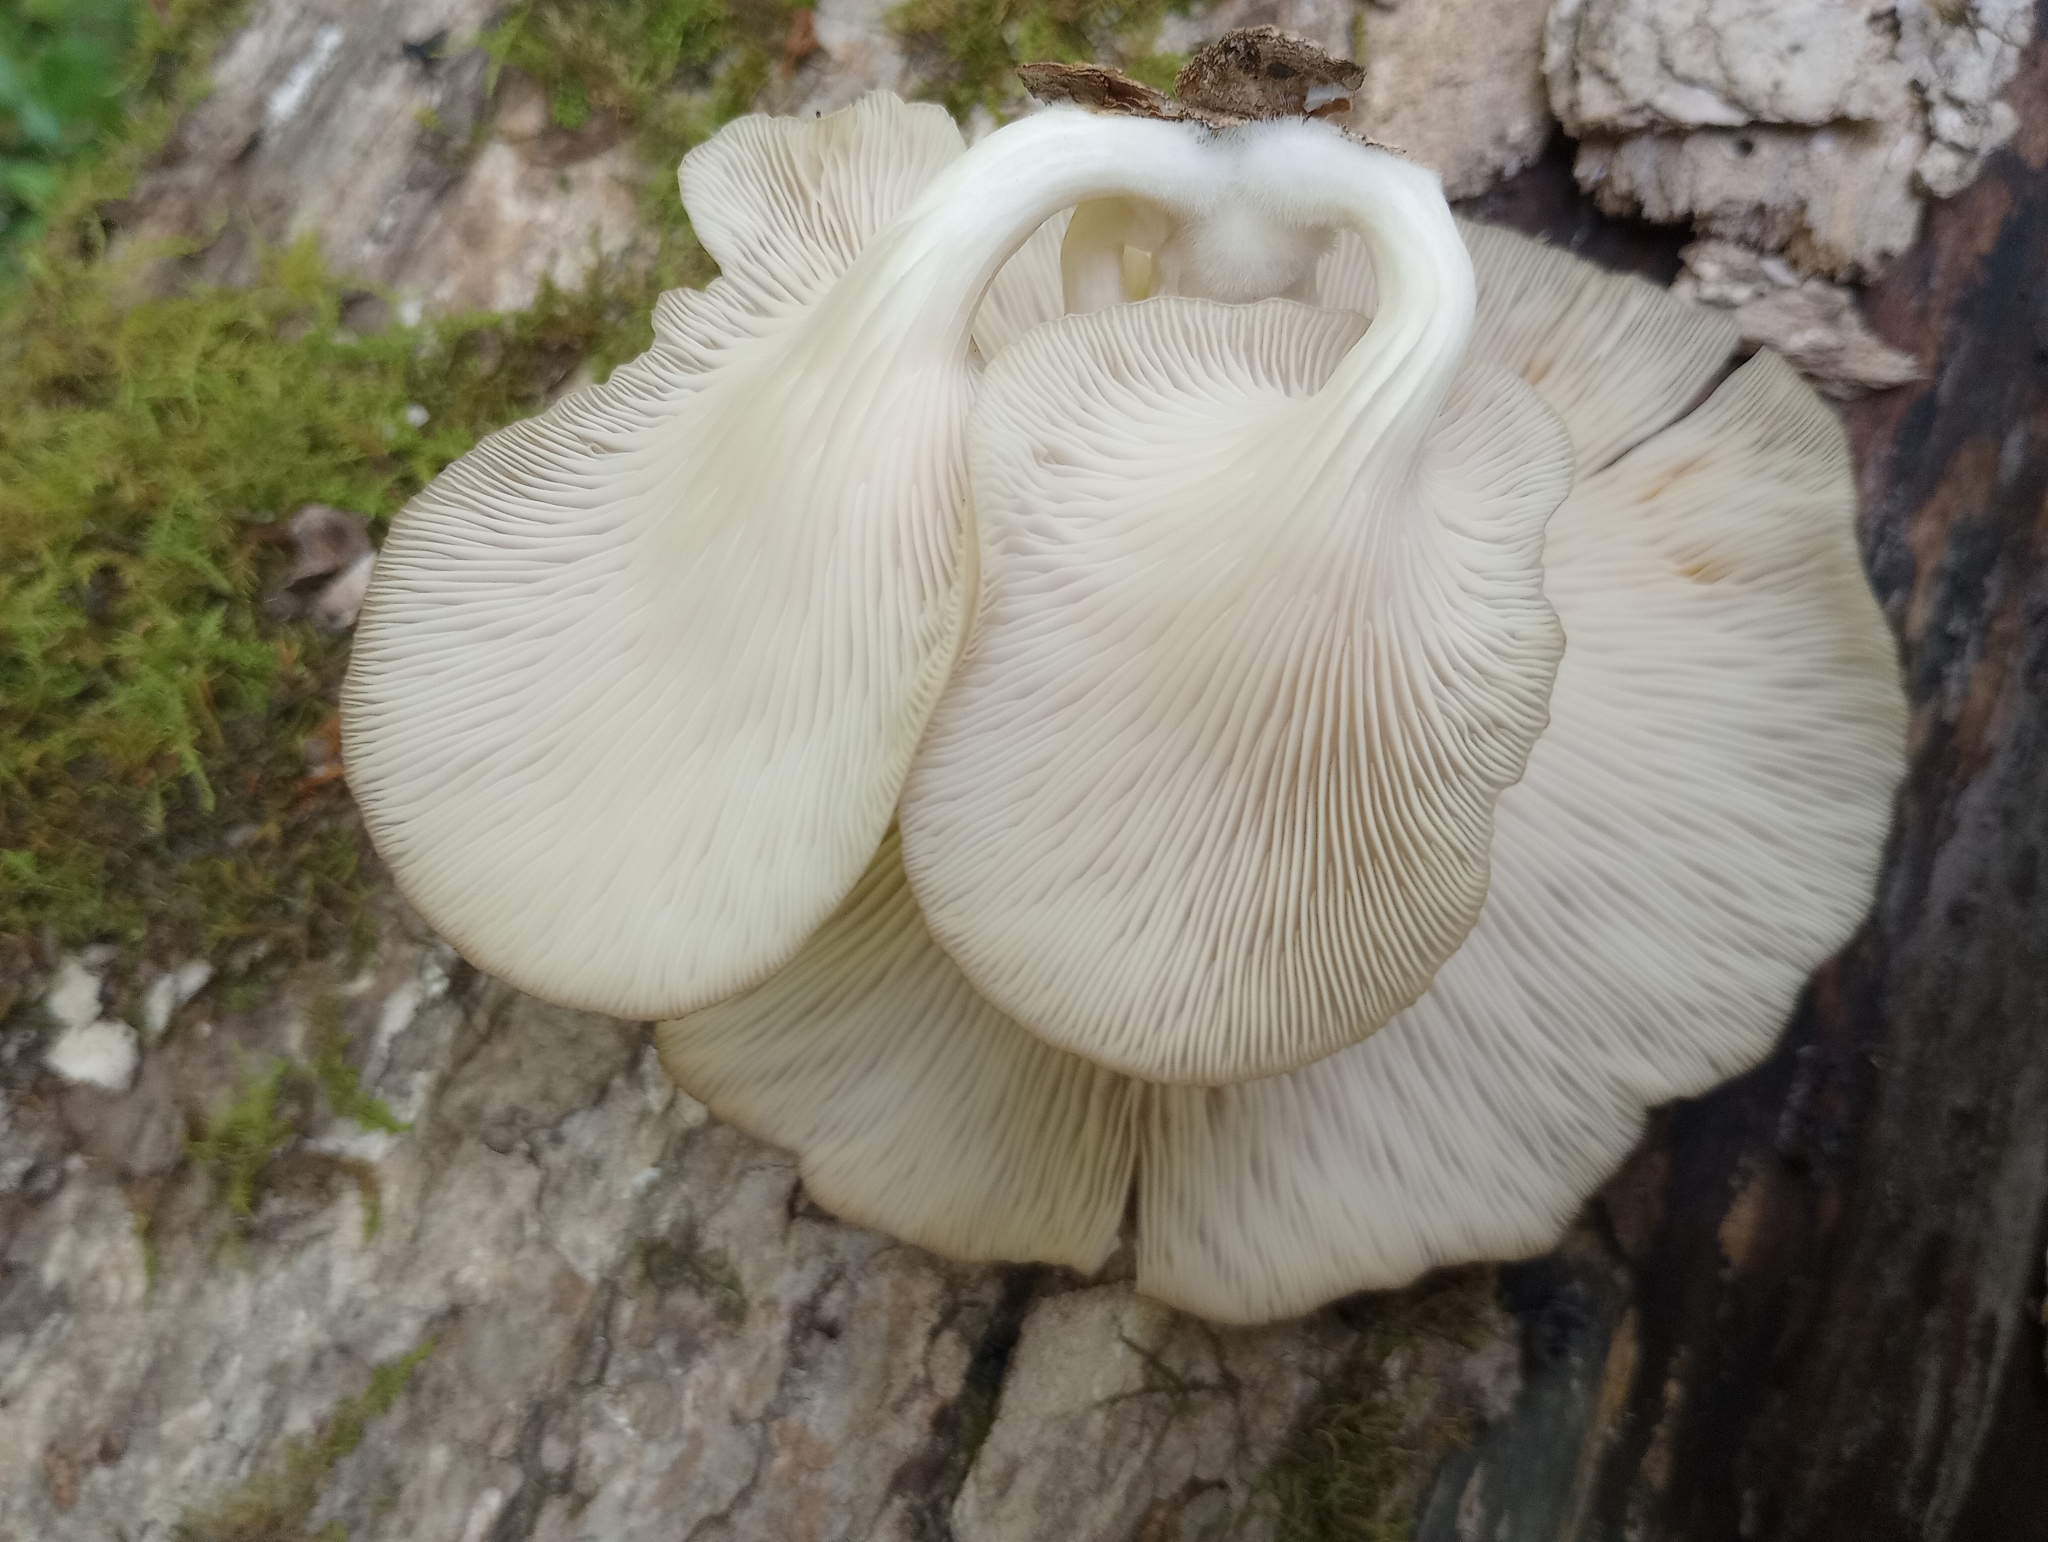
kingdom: Fungi
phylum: Basidiomycota
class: Agaricomycetes
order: Agaricales
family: Pleurotaceae
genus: Pleurotus
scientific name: Pleurotus pulmonarius
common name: Pale oyster
